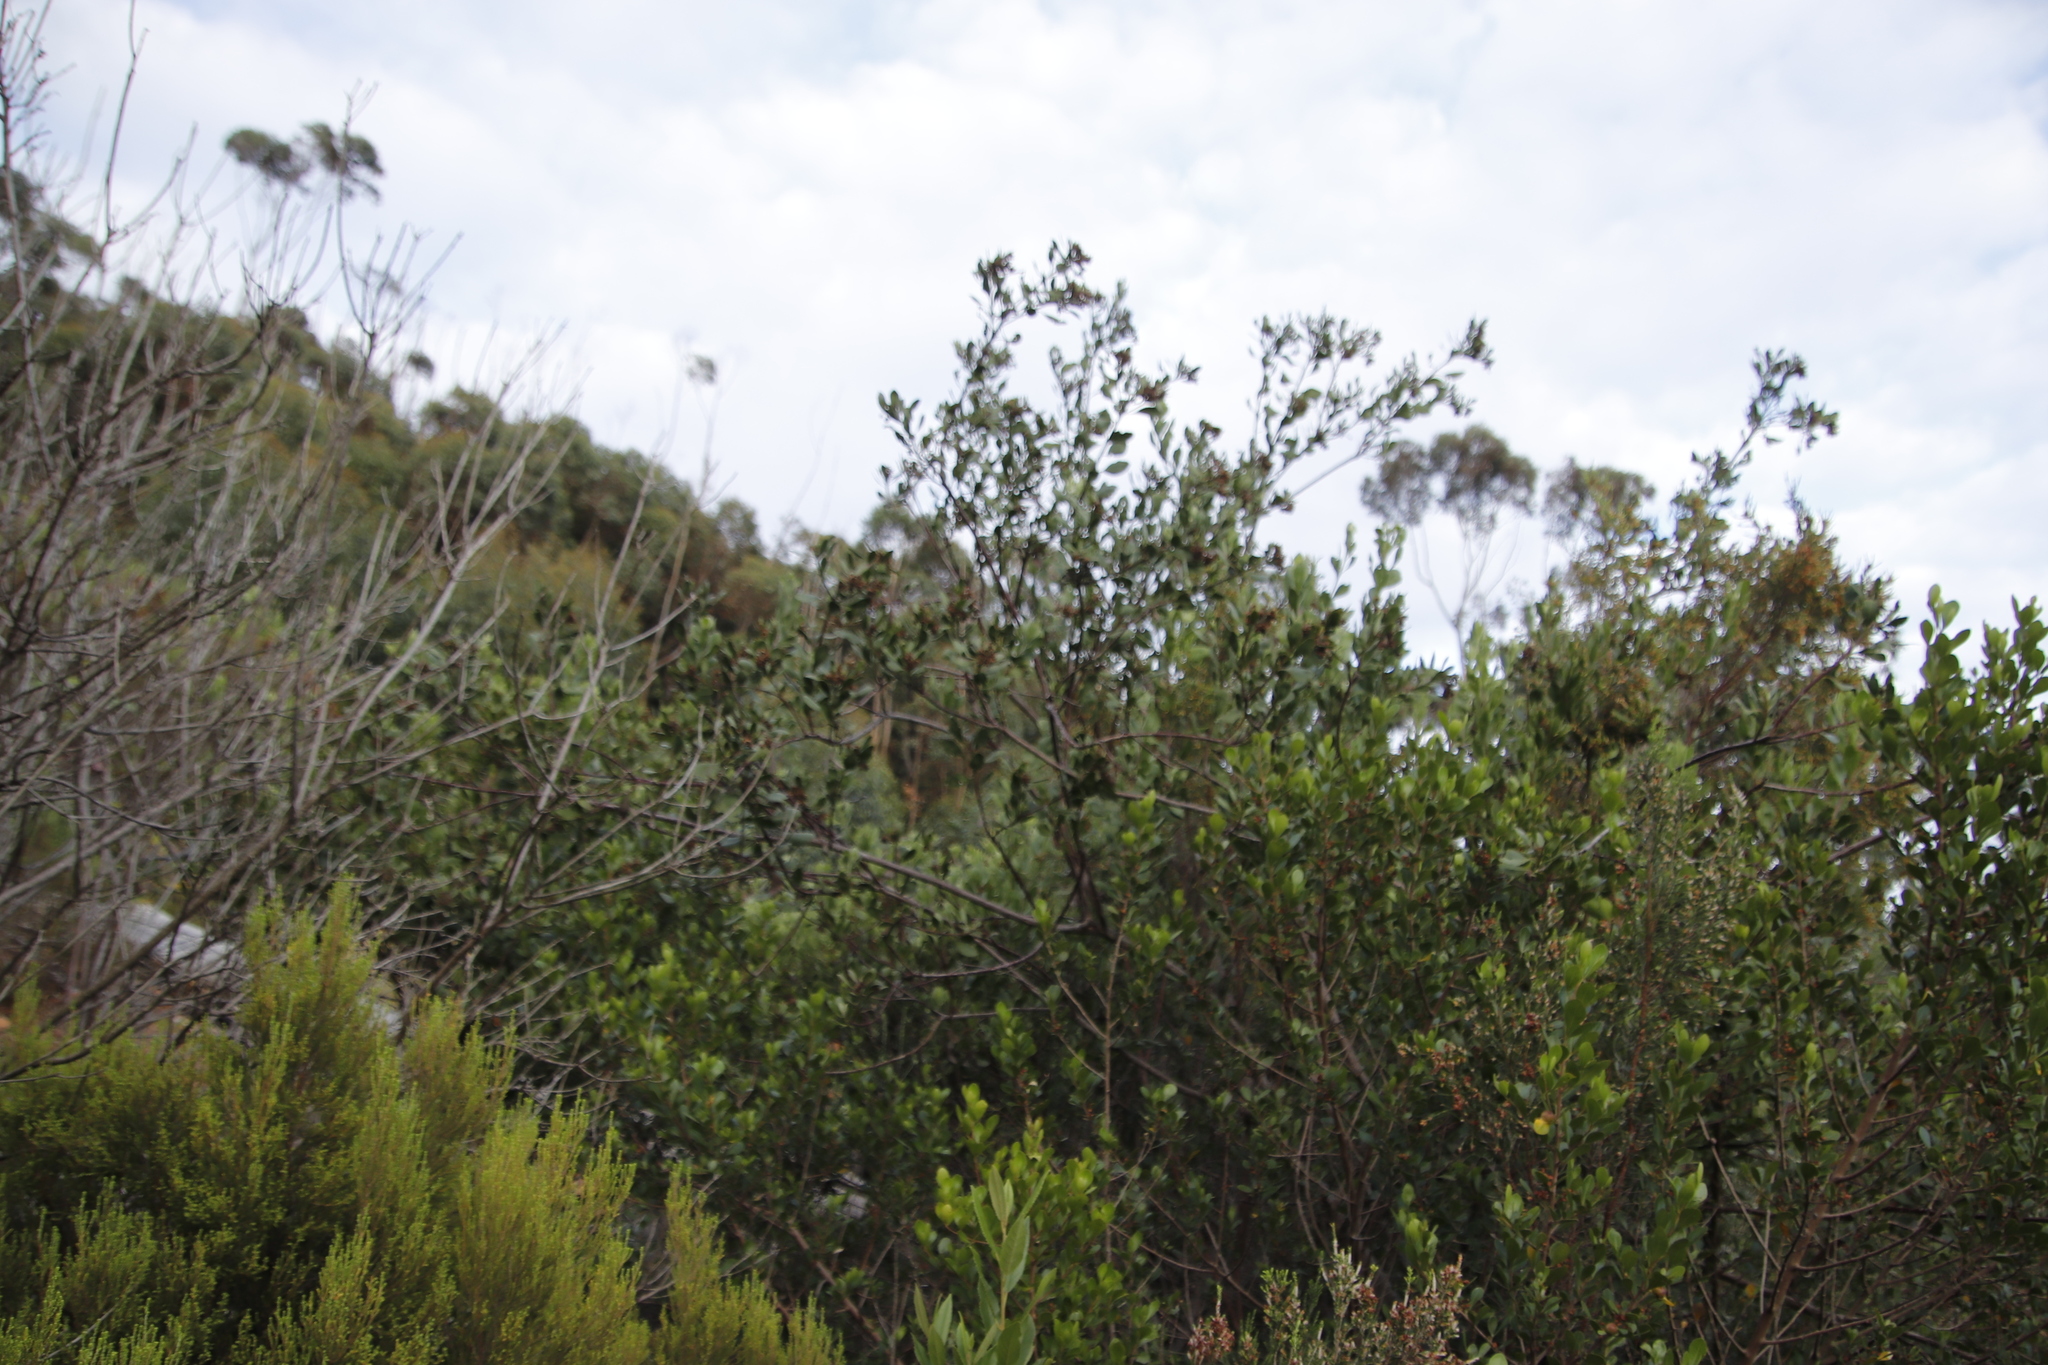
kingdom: Plantae
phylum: Tracheophyta
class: Magnoliopsida
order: Asterales
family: Asteraceae
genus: Osteospermum
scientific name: Osteospermum moniliferum
